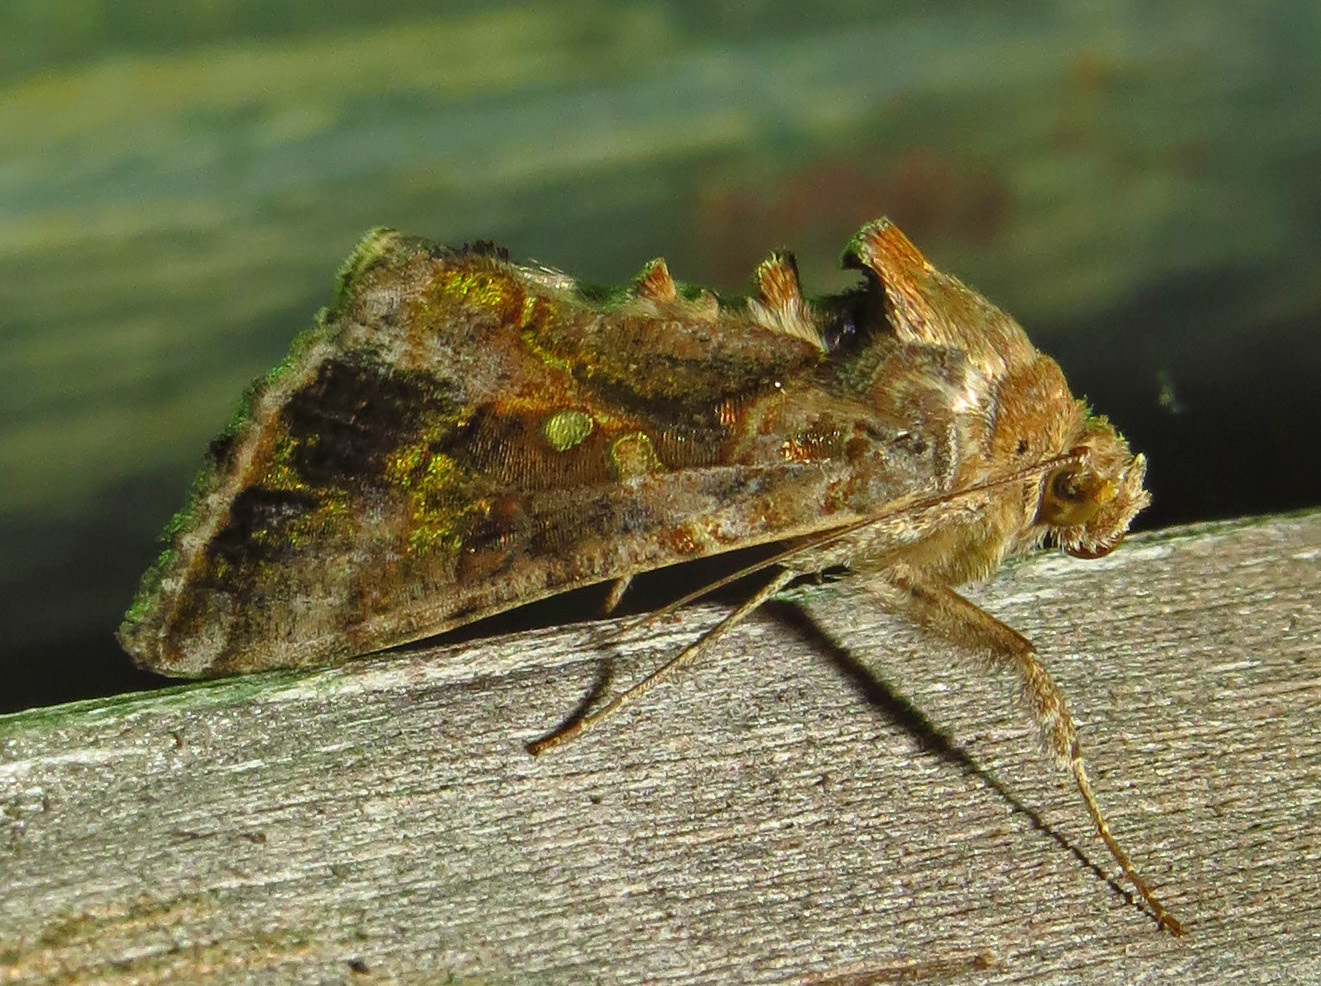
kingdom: Animalia
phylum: Arthropoda
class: Insecta
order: Lepidoptera
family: Noctuidae
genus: Chrysodeixis
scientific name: Chrysodeixis includens
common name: Cutworm moth
